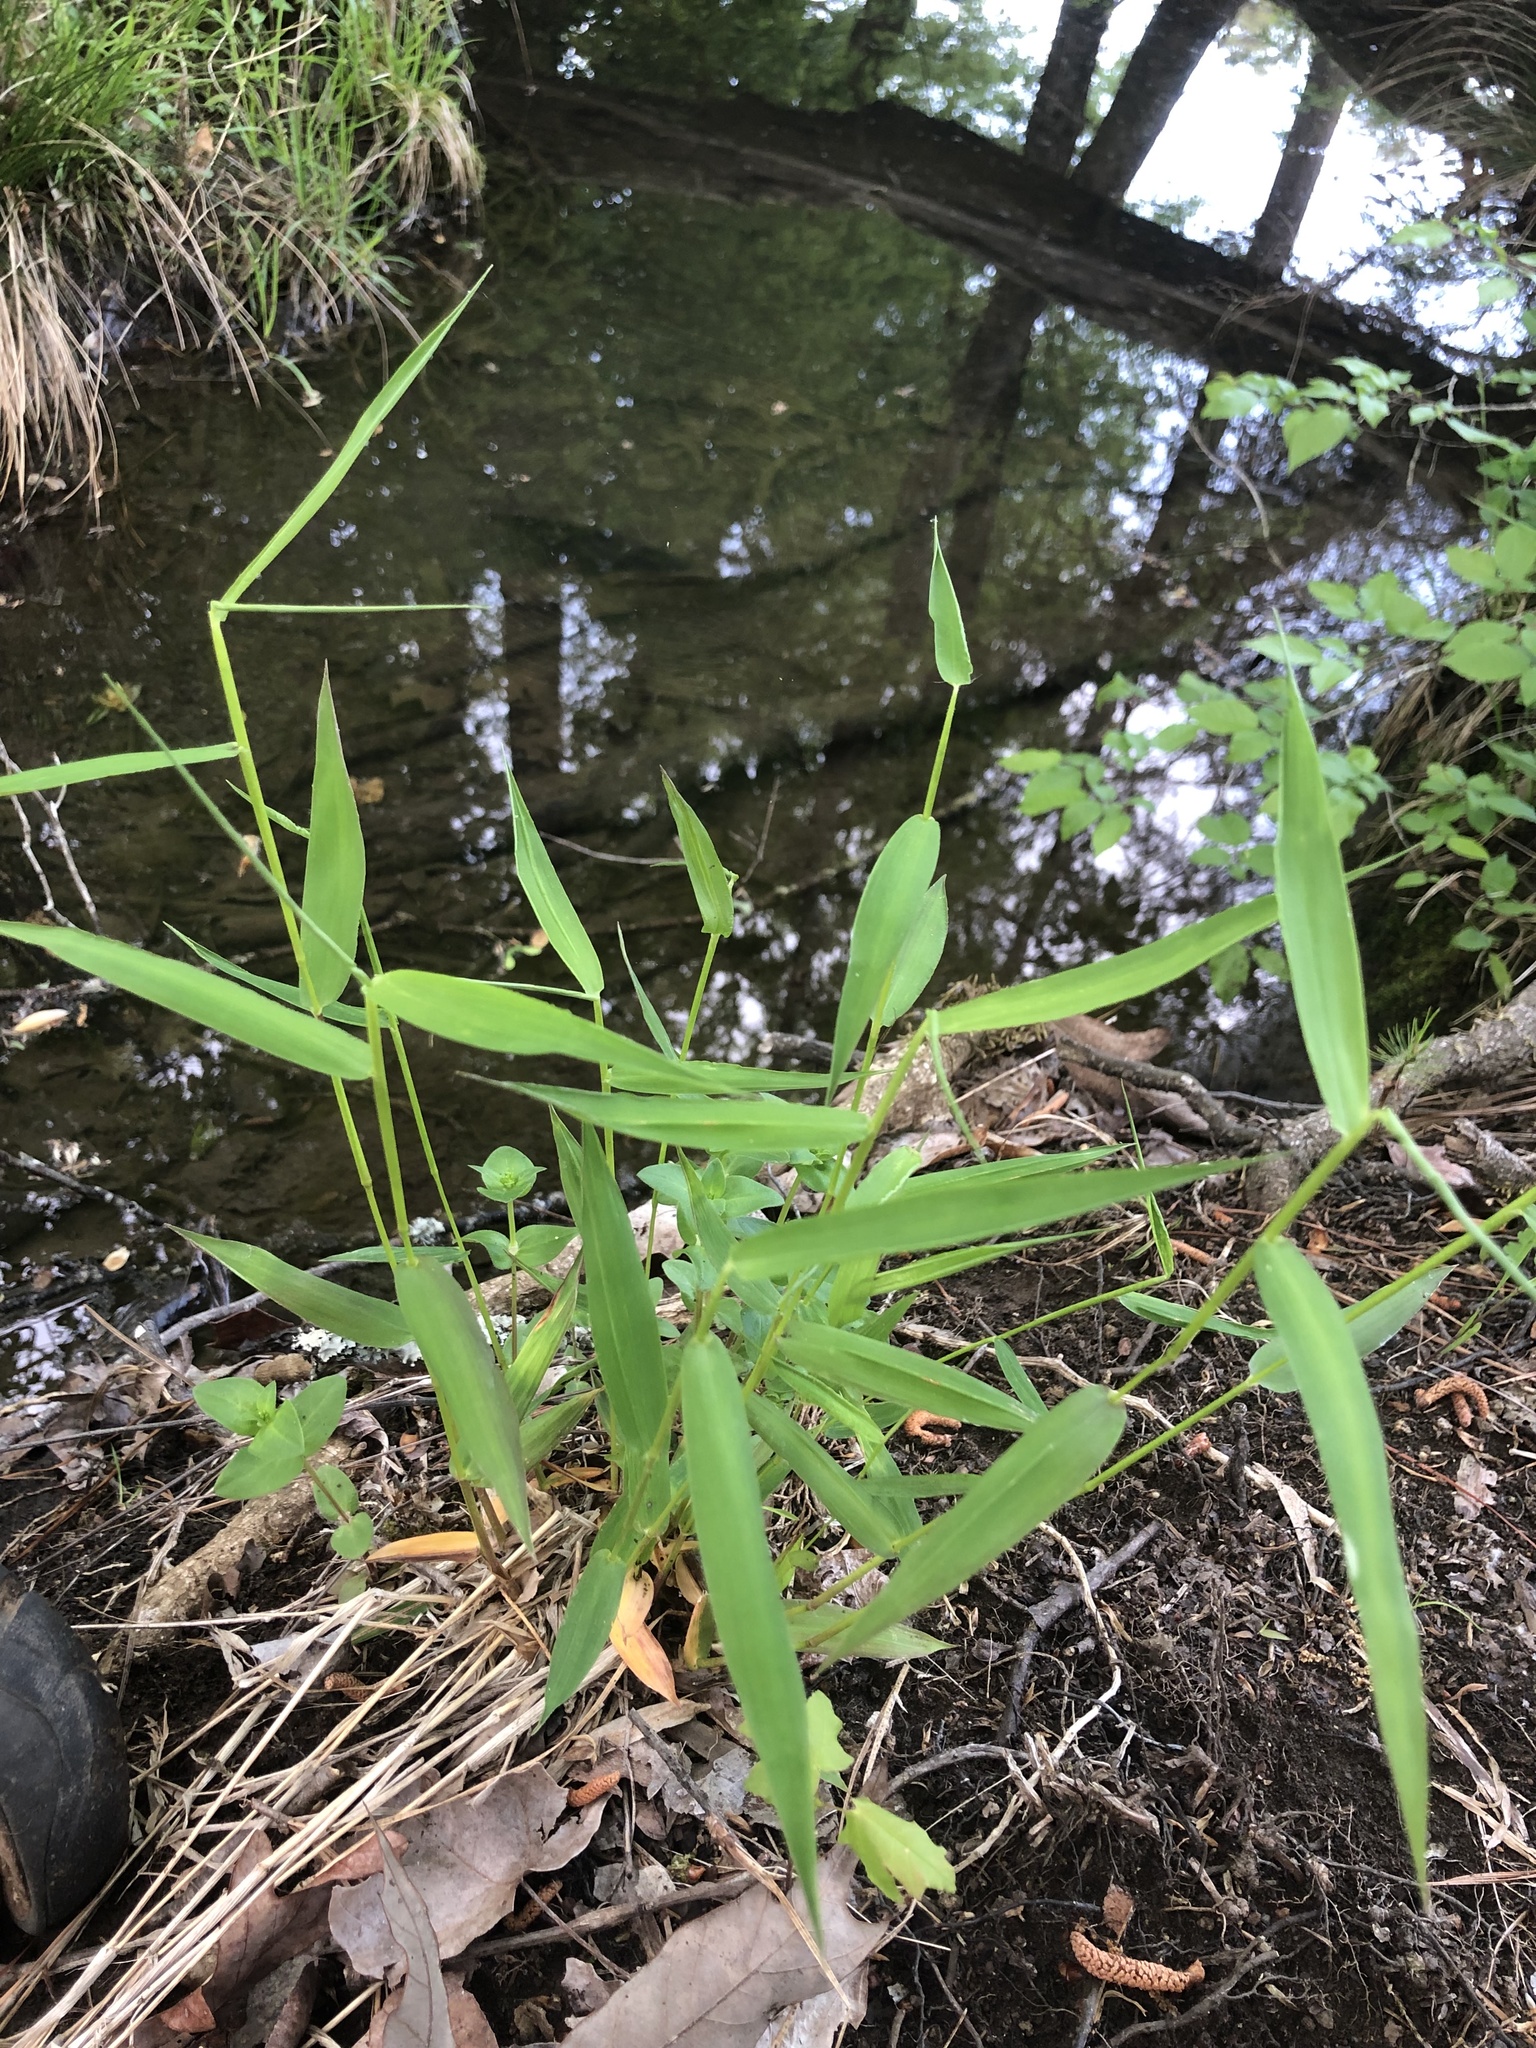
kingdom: Plantae
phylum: Tracheophyta
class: Liliopsida
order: Poales
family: Poaceae
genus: Dichanthelium
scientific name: Dichanthelium yadkinense
